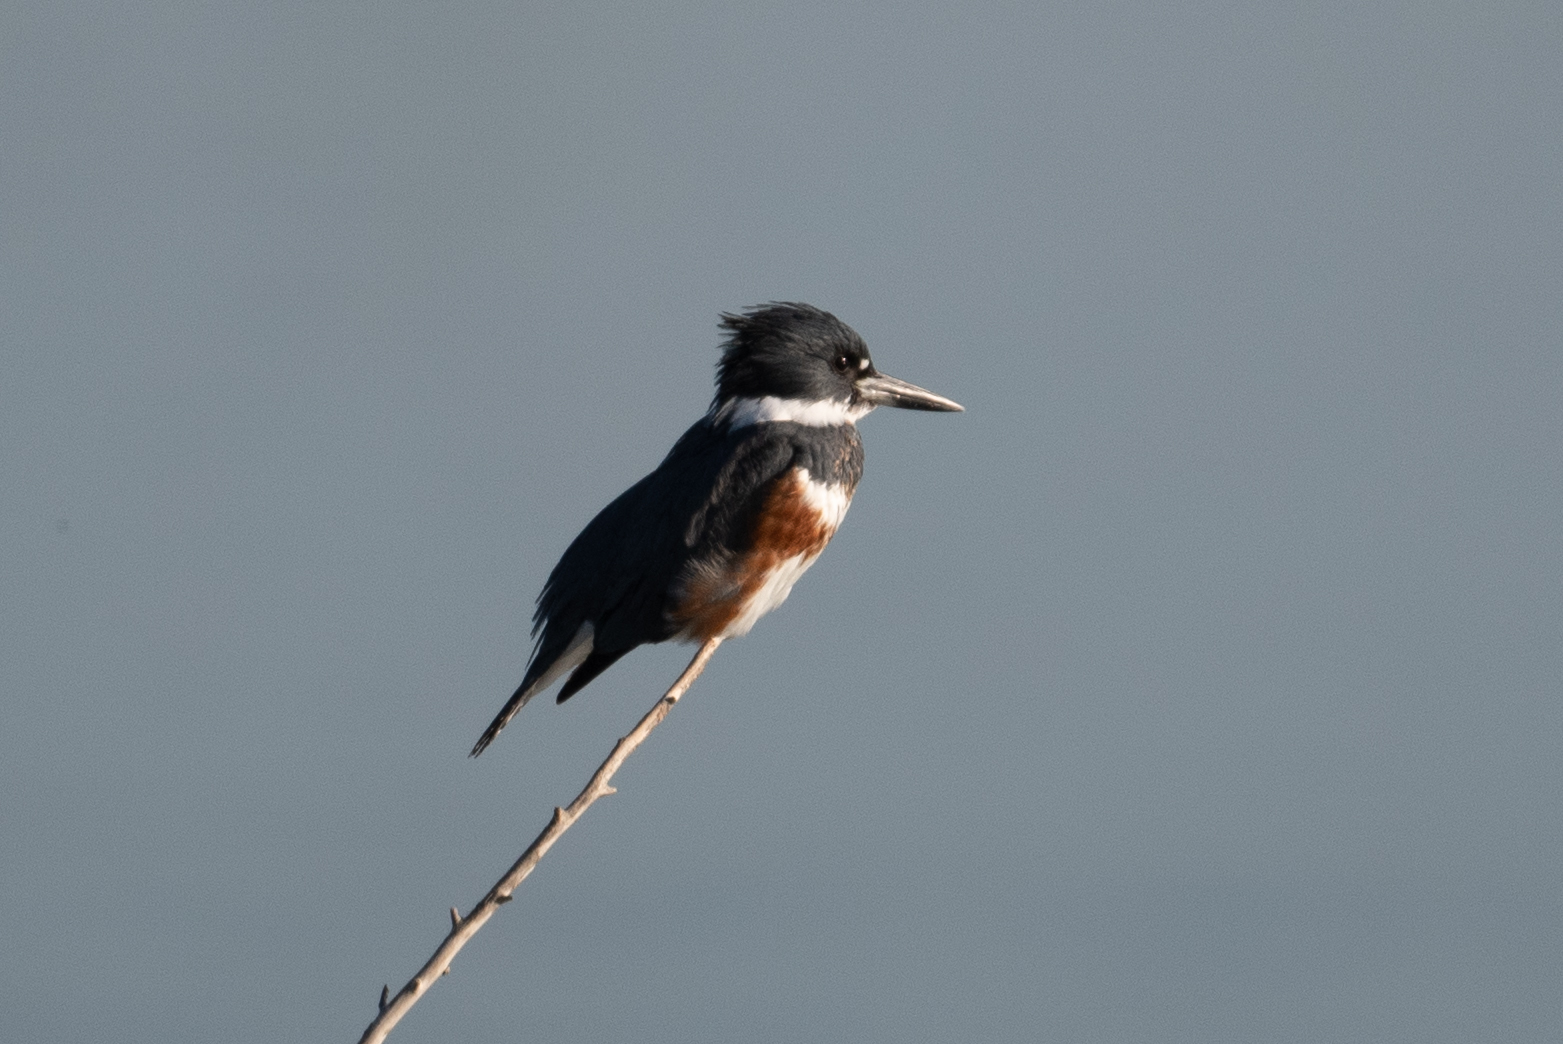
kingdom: Animalia
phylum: Chordata
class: Aves
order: Coraciiformes
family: Alcedinidae
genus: Megaceryle
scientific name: Megaceryle alcyon
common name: Belted kingfisher
